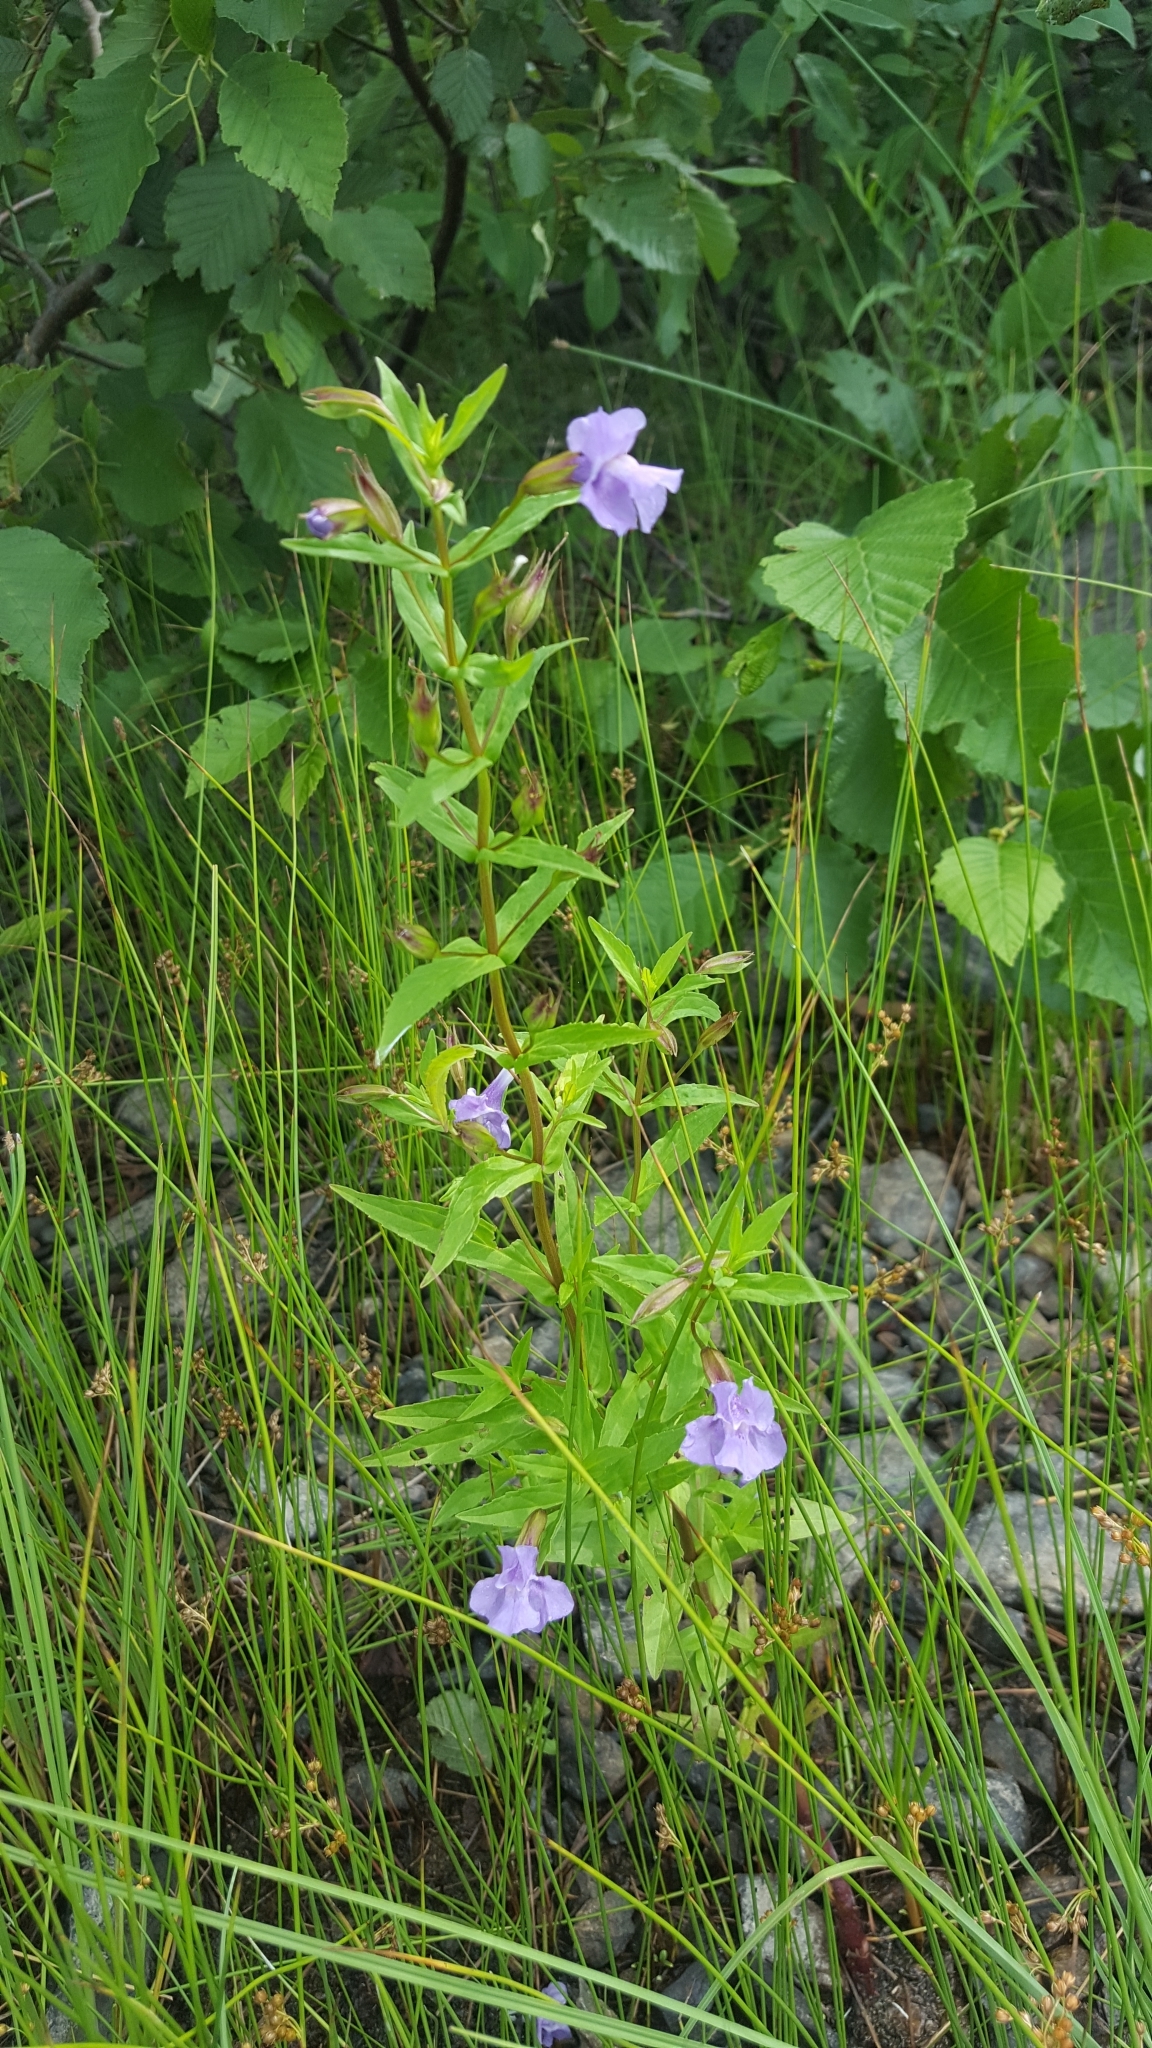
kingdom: Plantae
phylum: Tracheophyta
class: Magnoliopsida
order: Lamiales
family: Phrymaceae
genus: Mimulus
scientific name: Mimulus ringens
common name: Allegheny monkeyflower
